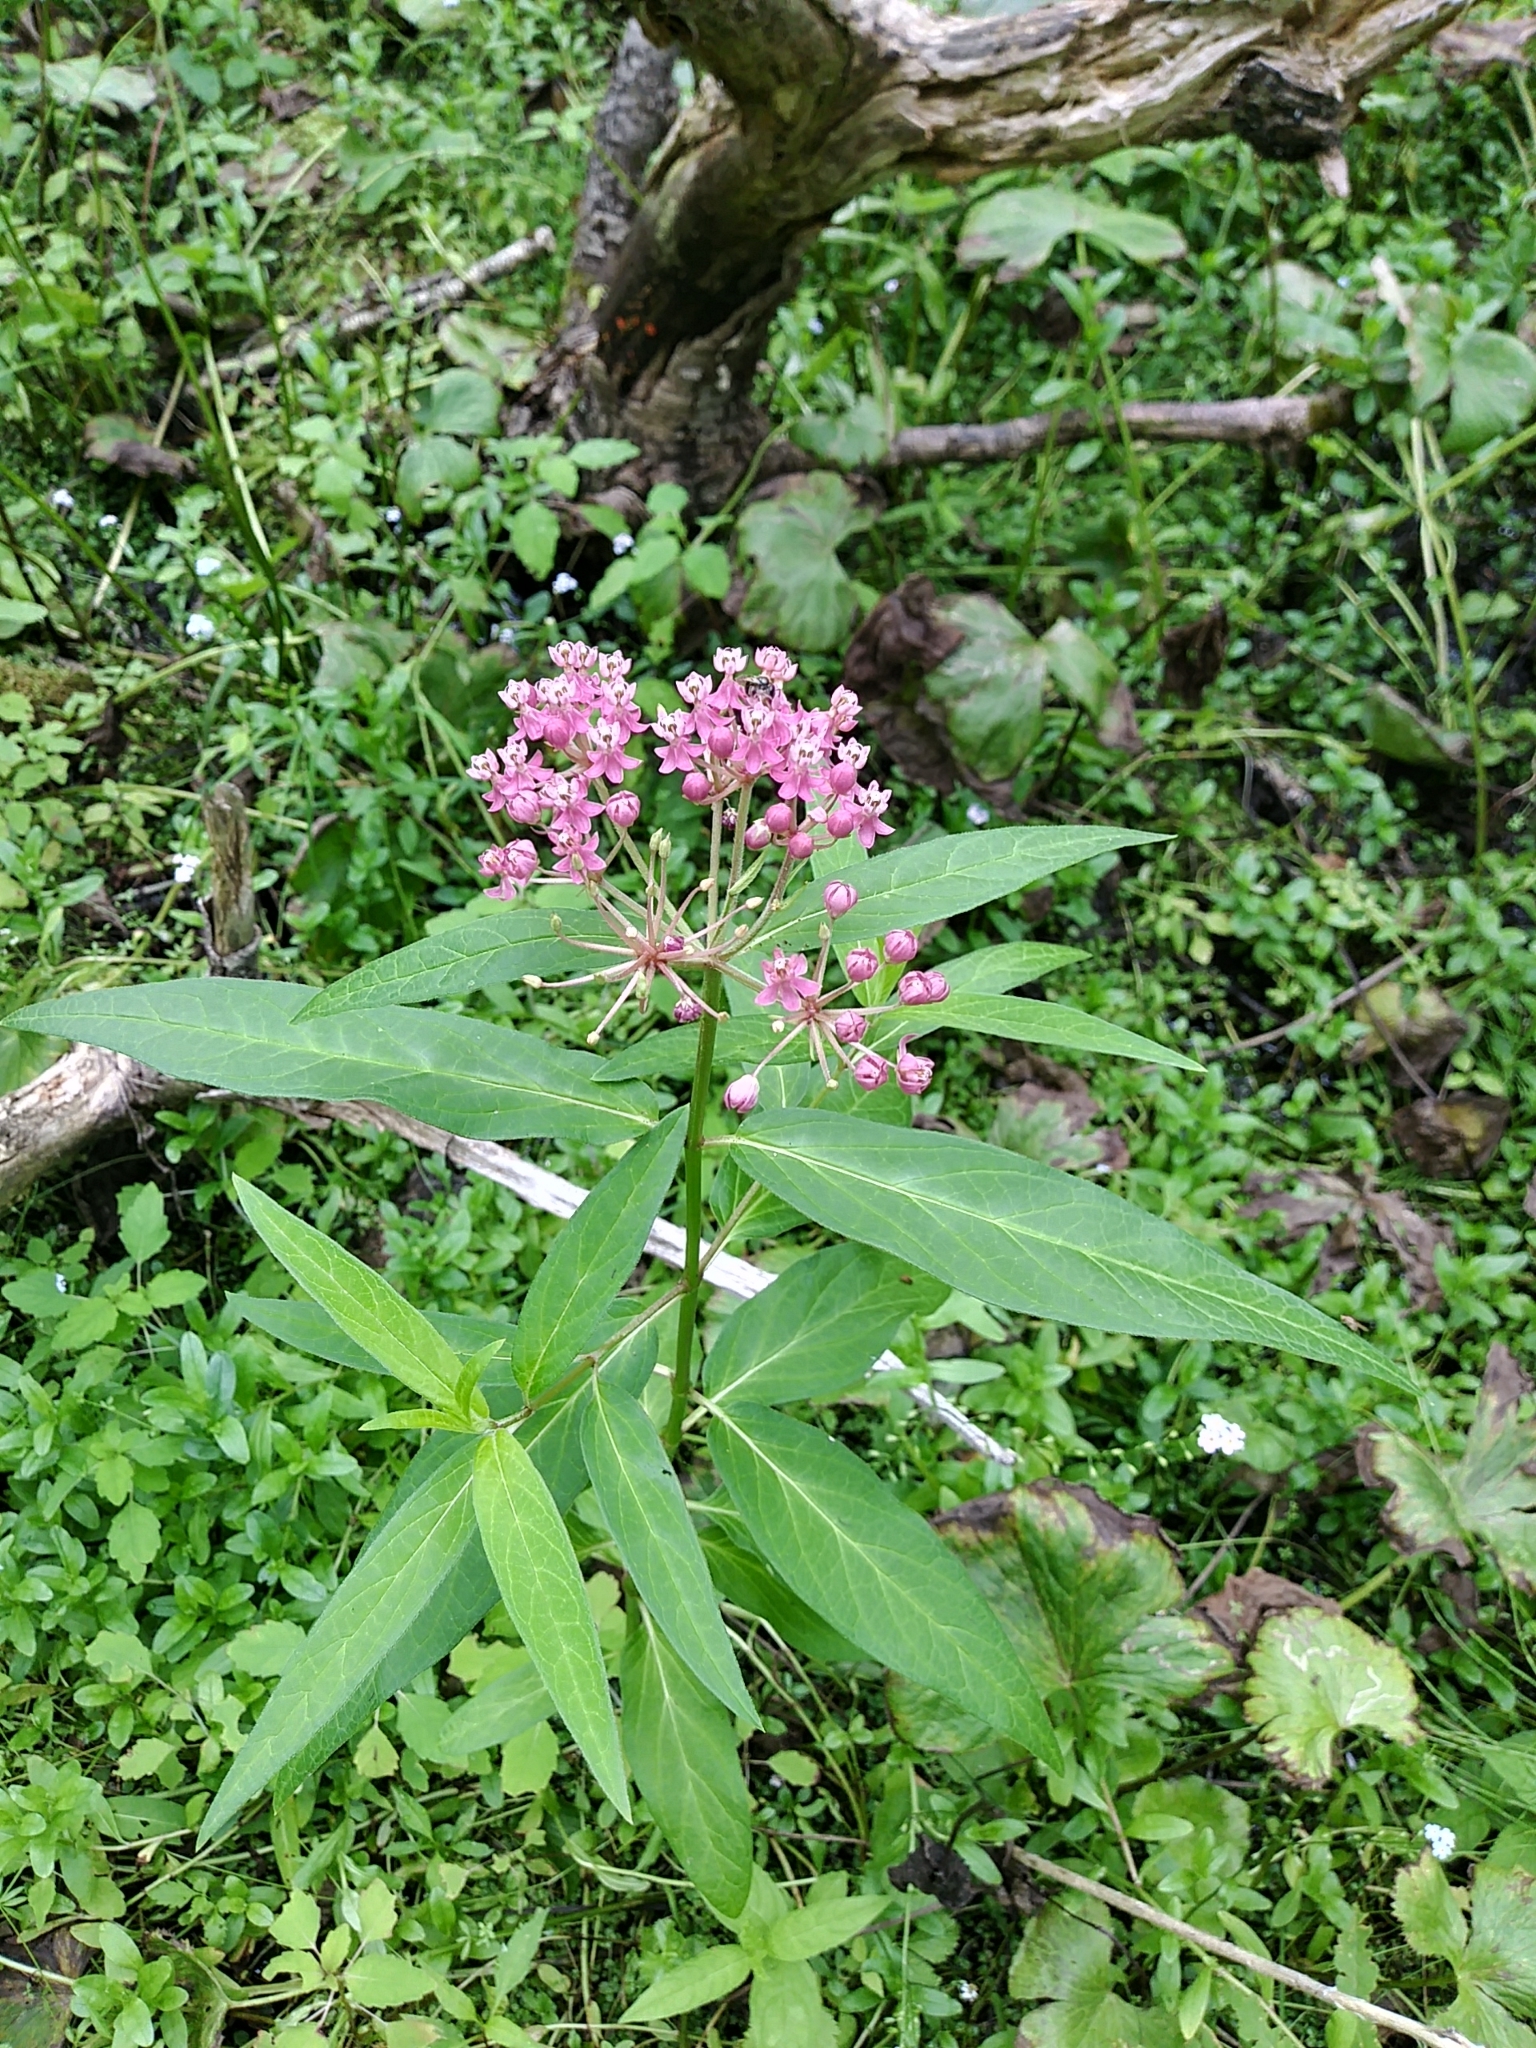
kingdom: Plantae
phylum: Tracheophyta
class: Magnoliopsida
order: Gentianales
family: Apocynaceae
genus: Asclepias
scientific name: Asclepias incarnata
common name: Swamp milkweed
